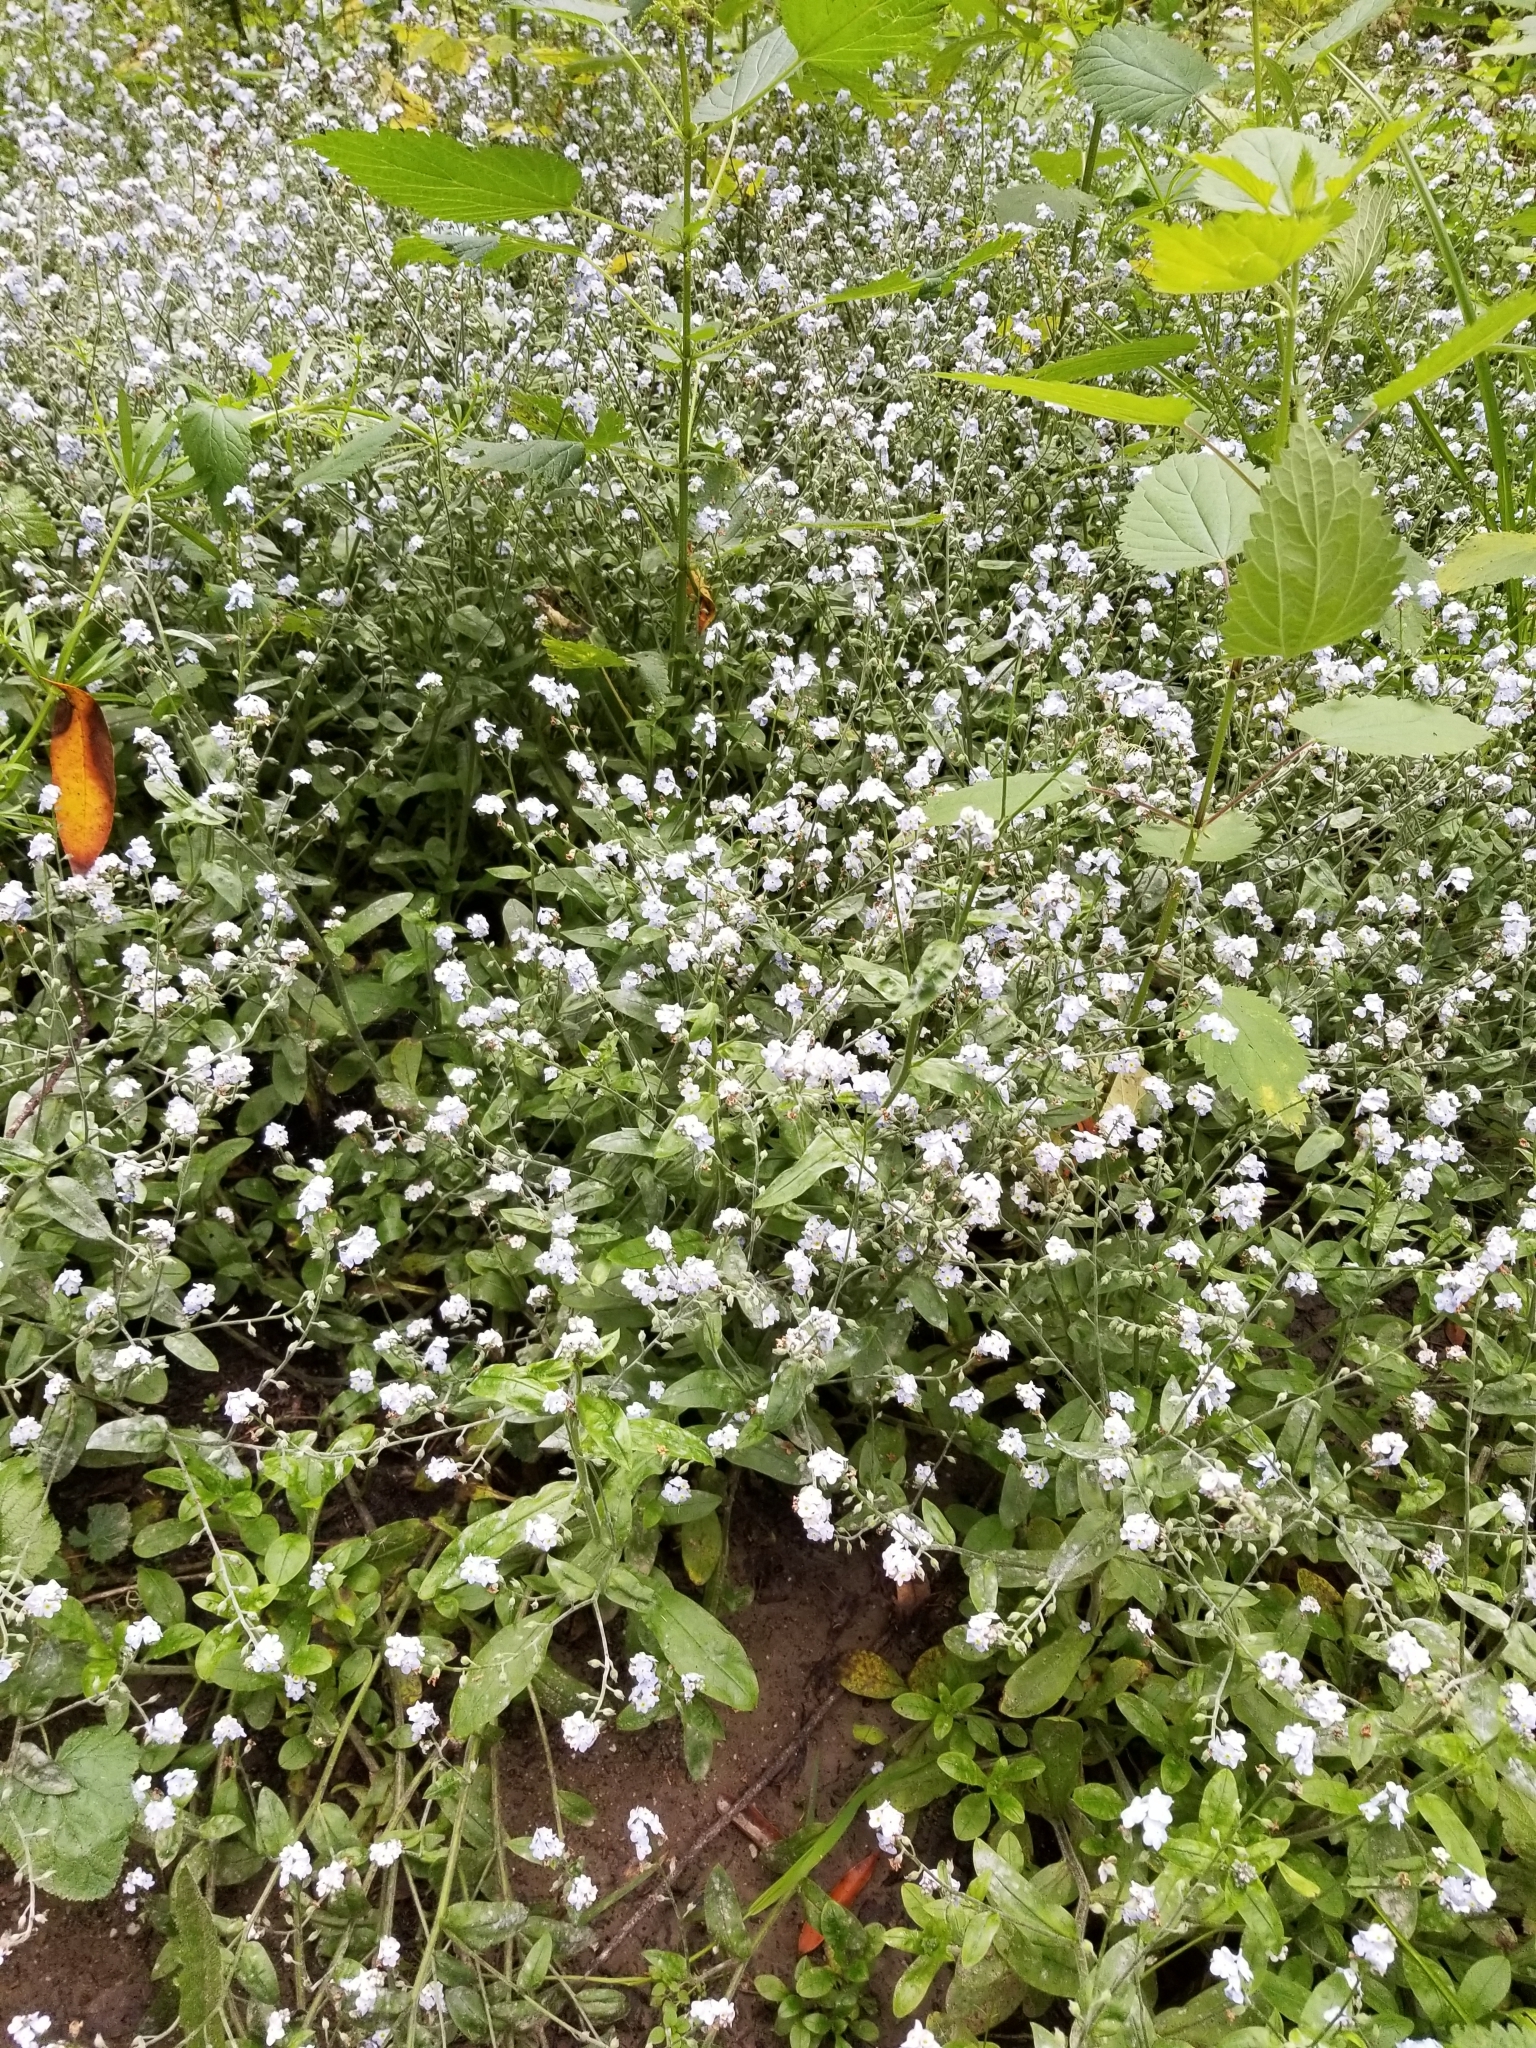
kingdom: Plantae
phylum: Tracheophyta
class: Magnoliopsida
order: Boraginales
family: Boraginaceae
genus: Myosotis
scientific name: Myosotis latifolia
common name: Broadleaf forget-me-not
